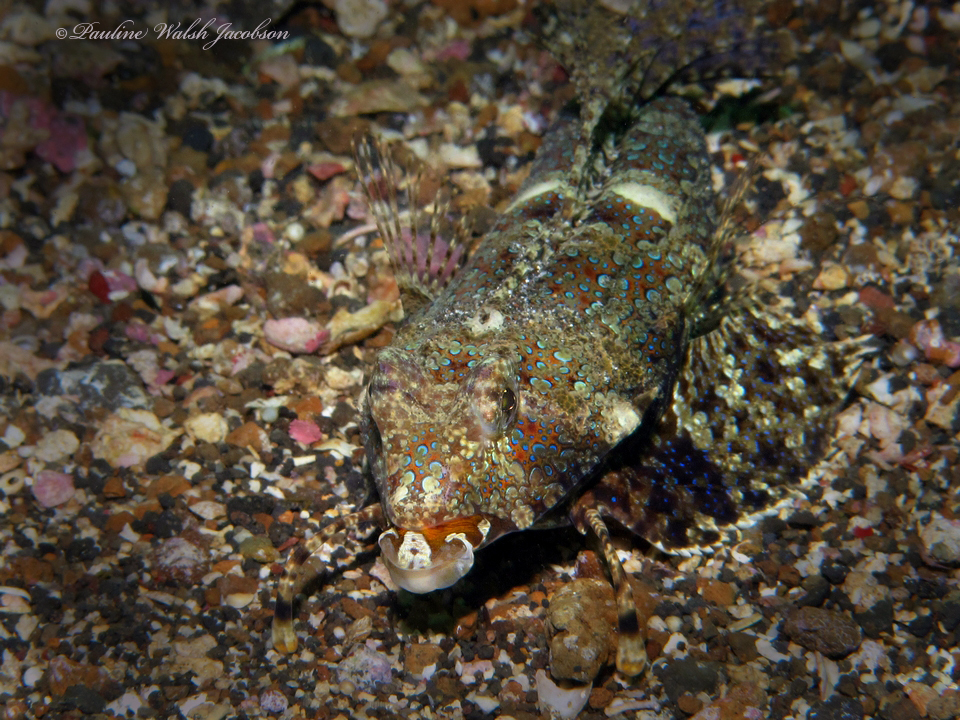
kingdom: Animalia
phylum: Chordata
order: Perciformes
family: Callionymidae
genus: Dactylopus
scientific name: Dactylopus kuiteri
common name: Kuiter's dragonet
